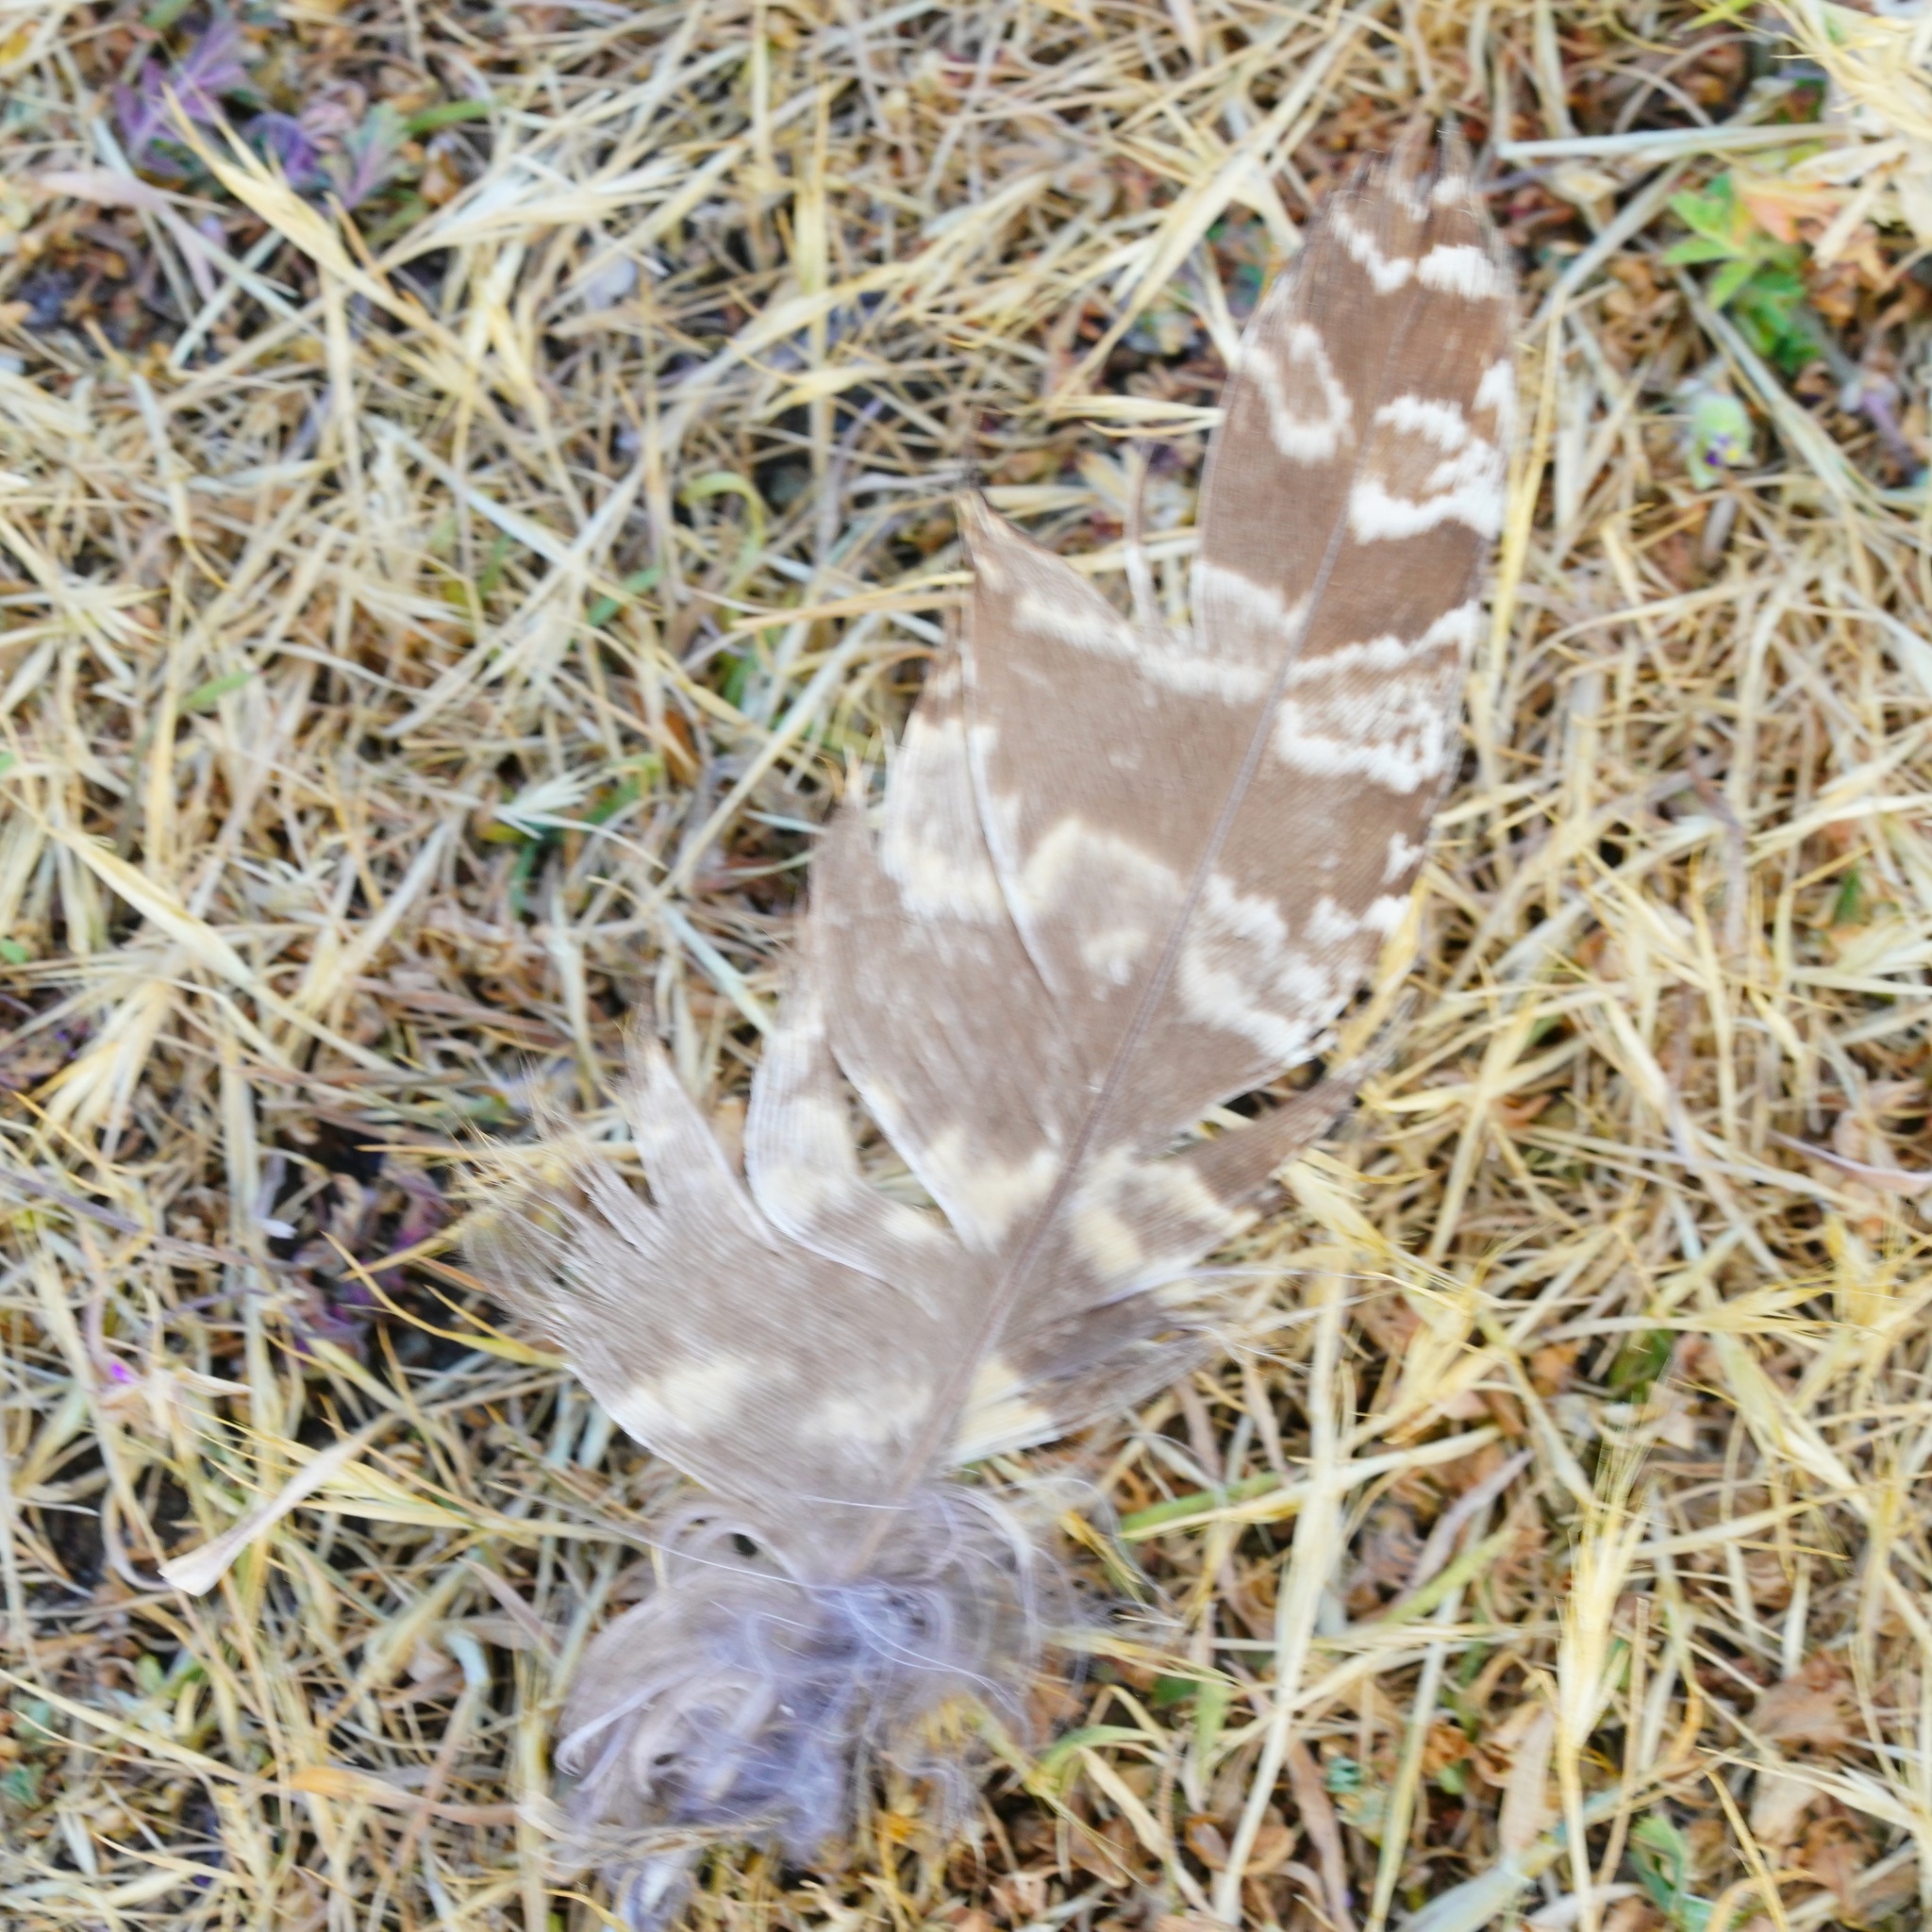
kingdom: Animalia
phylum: Chordata
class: Aves
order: Strigiformes
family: Strigidae
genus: Bubo
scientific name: Bubo virginianus
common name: Great horned owl
